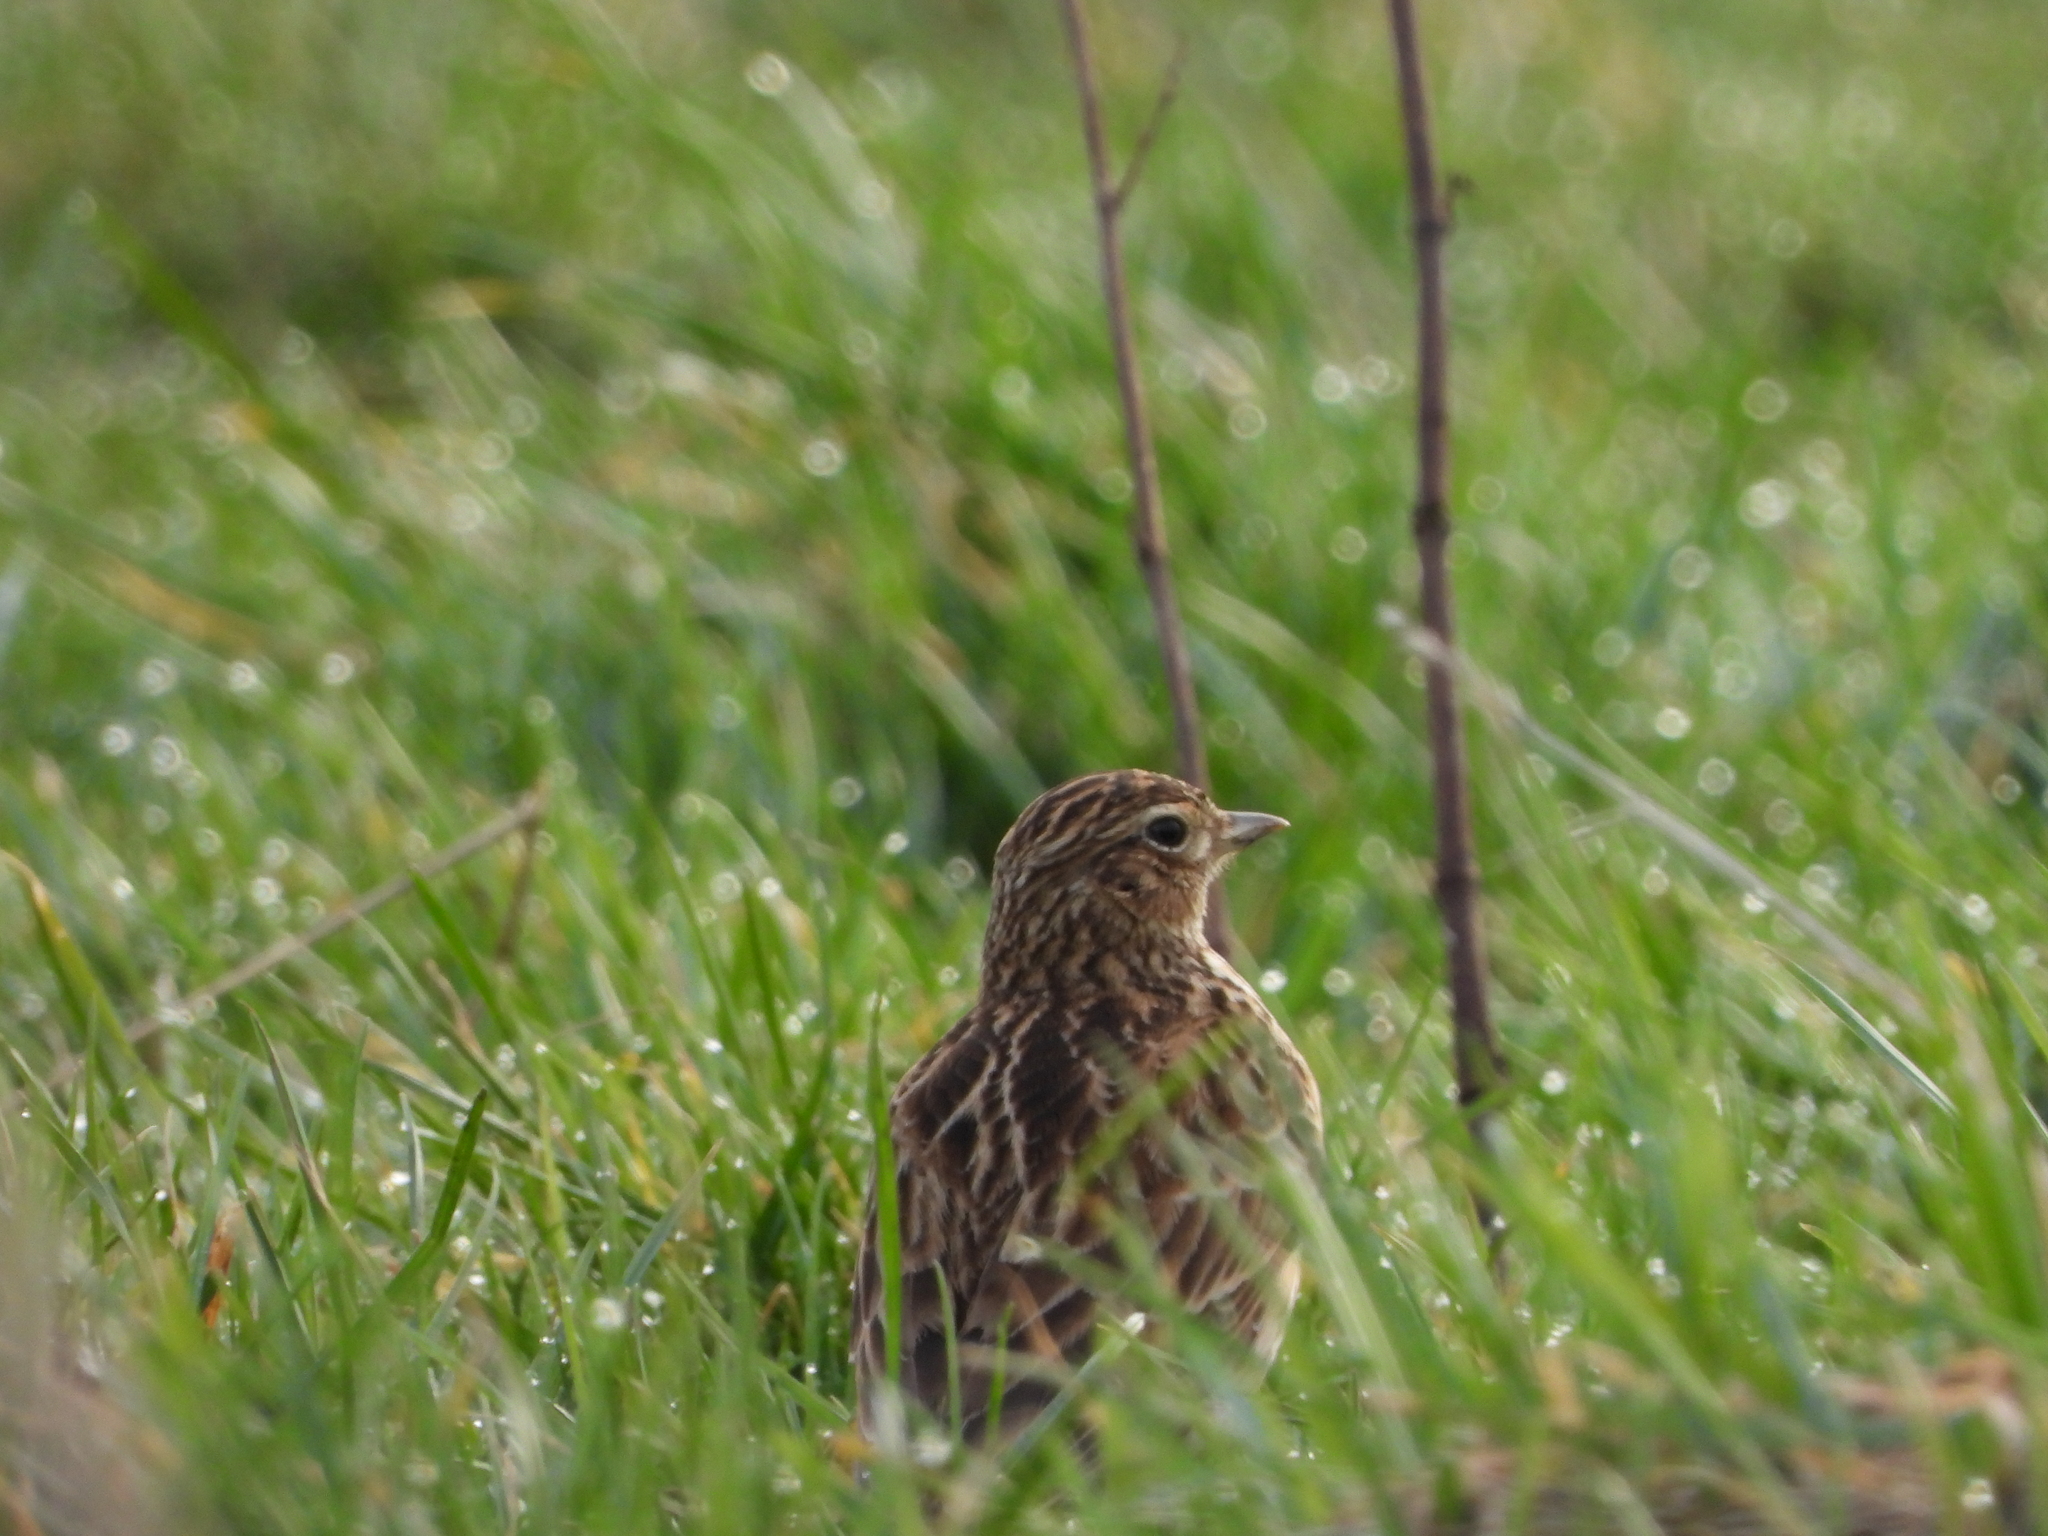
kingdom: Animalia
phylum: Chordata
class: Aves
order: Passeriformes
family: Alaudidae
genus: Alauda
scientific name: Alauda arvensis
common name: Eurasian skylark
